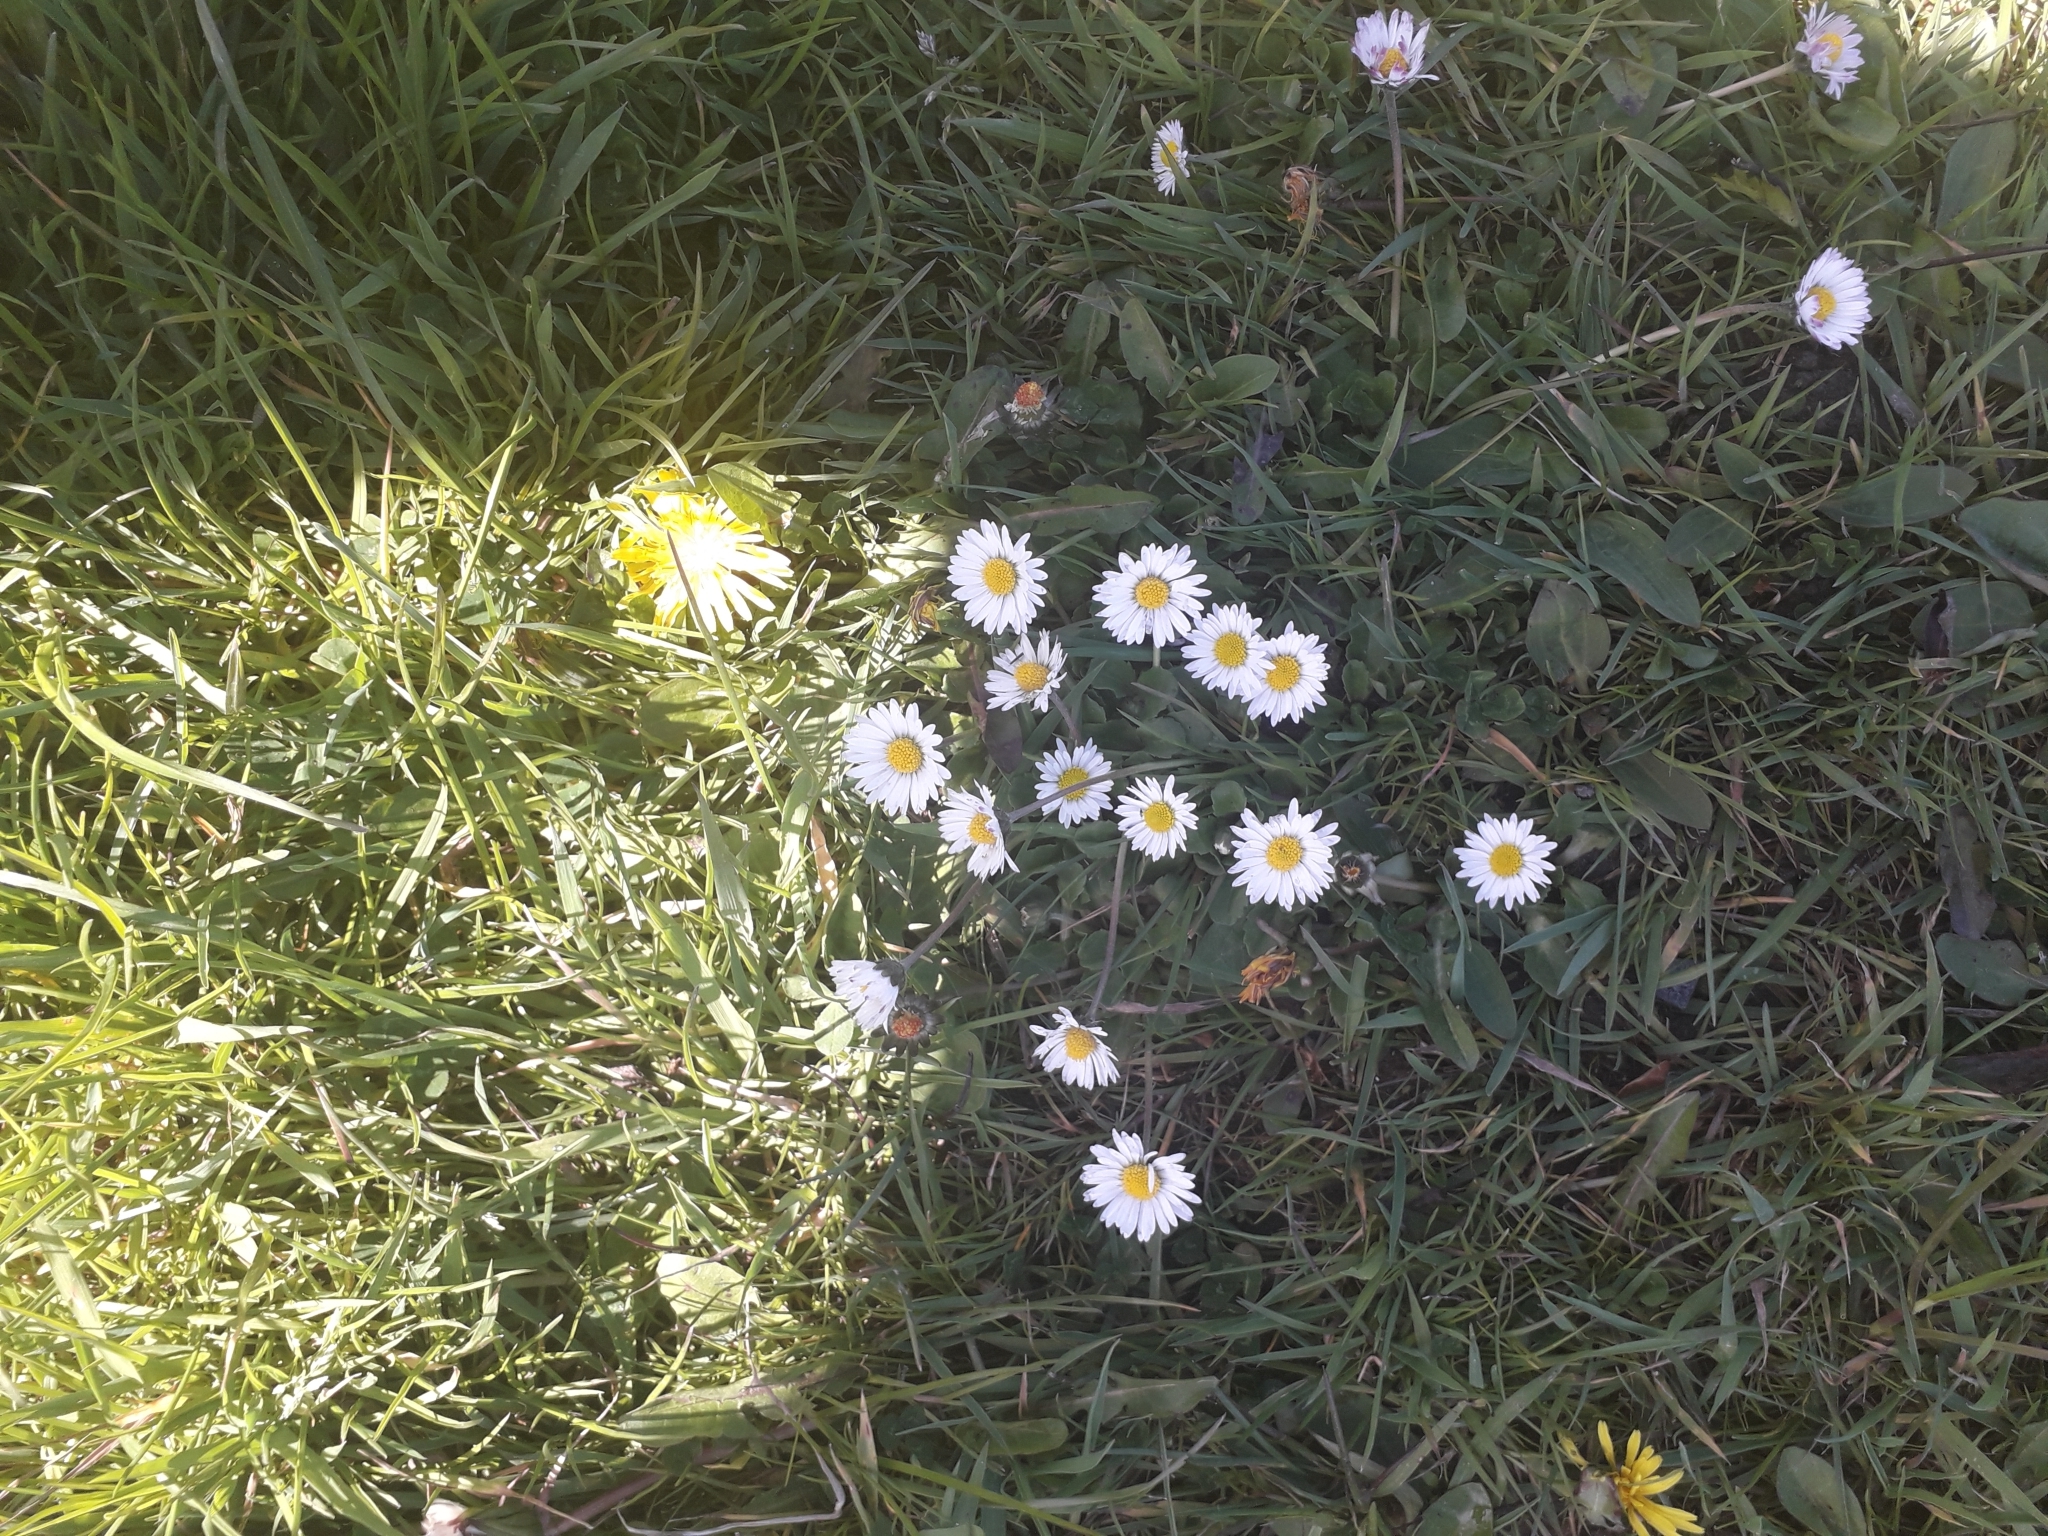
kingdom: Plantae
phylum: Tracheophyta
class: Magnoliopsida
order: Asterales
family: Asteraceae
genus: Bellis
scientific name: Bellis perennis
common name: Lawndaisy
